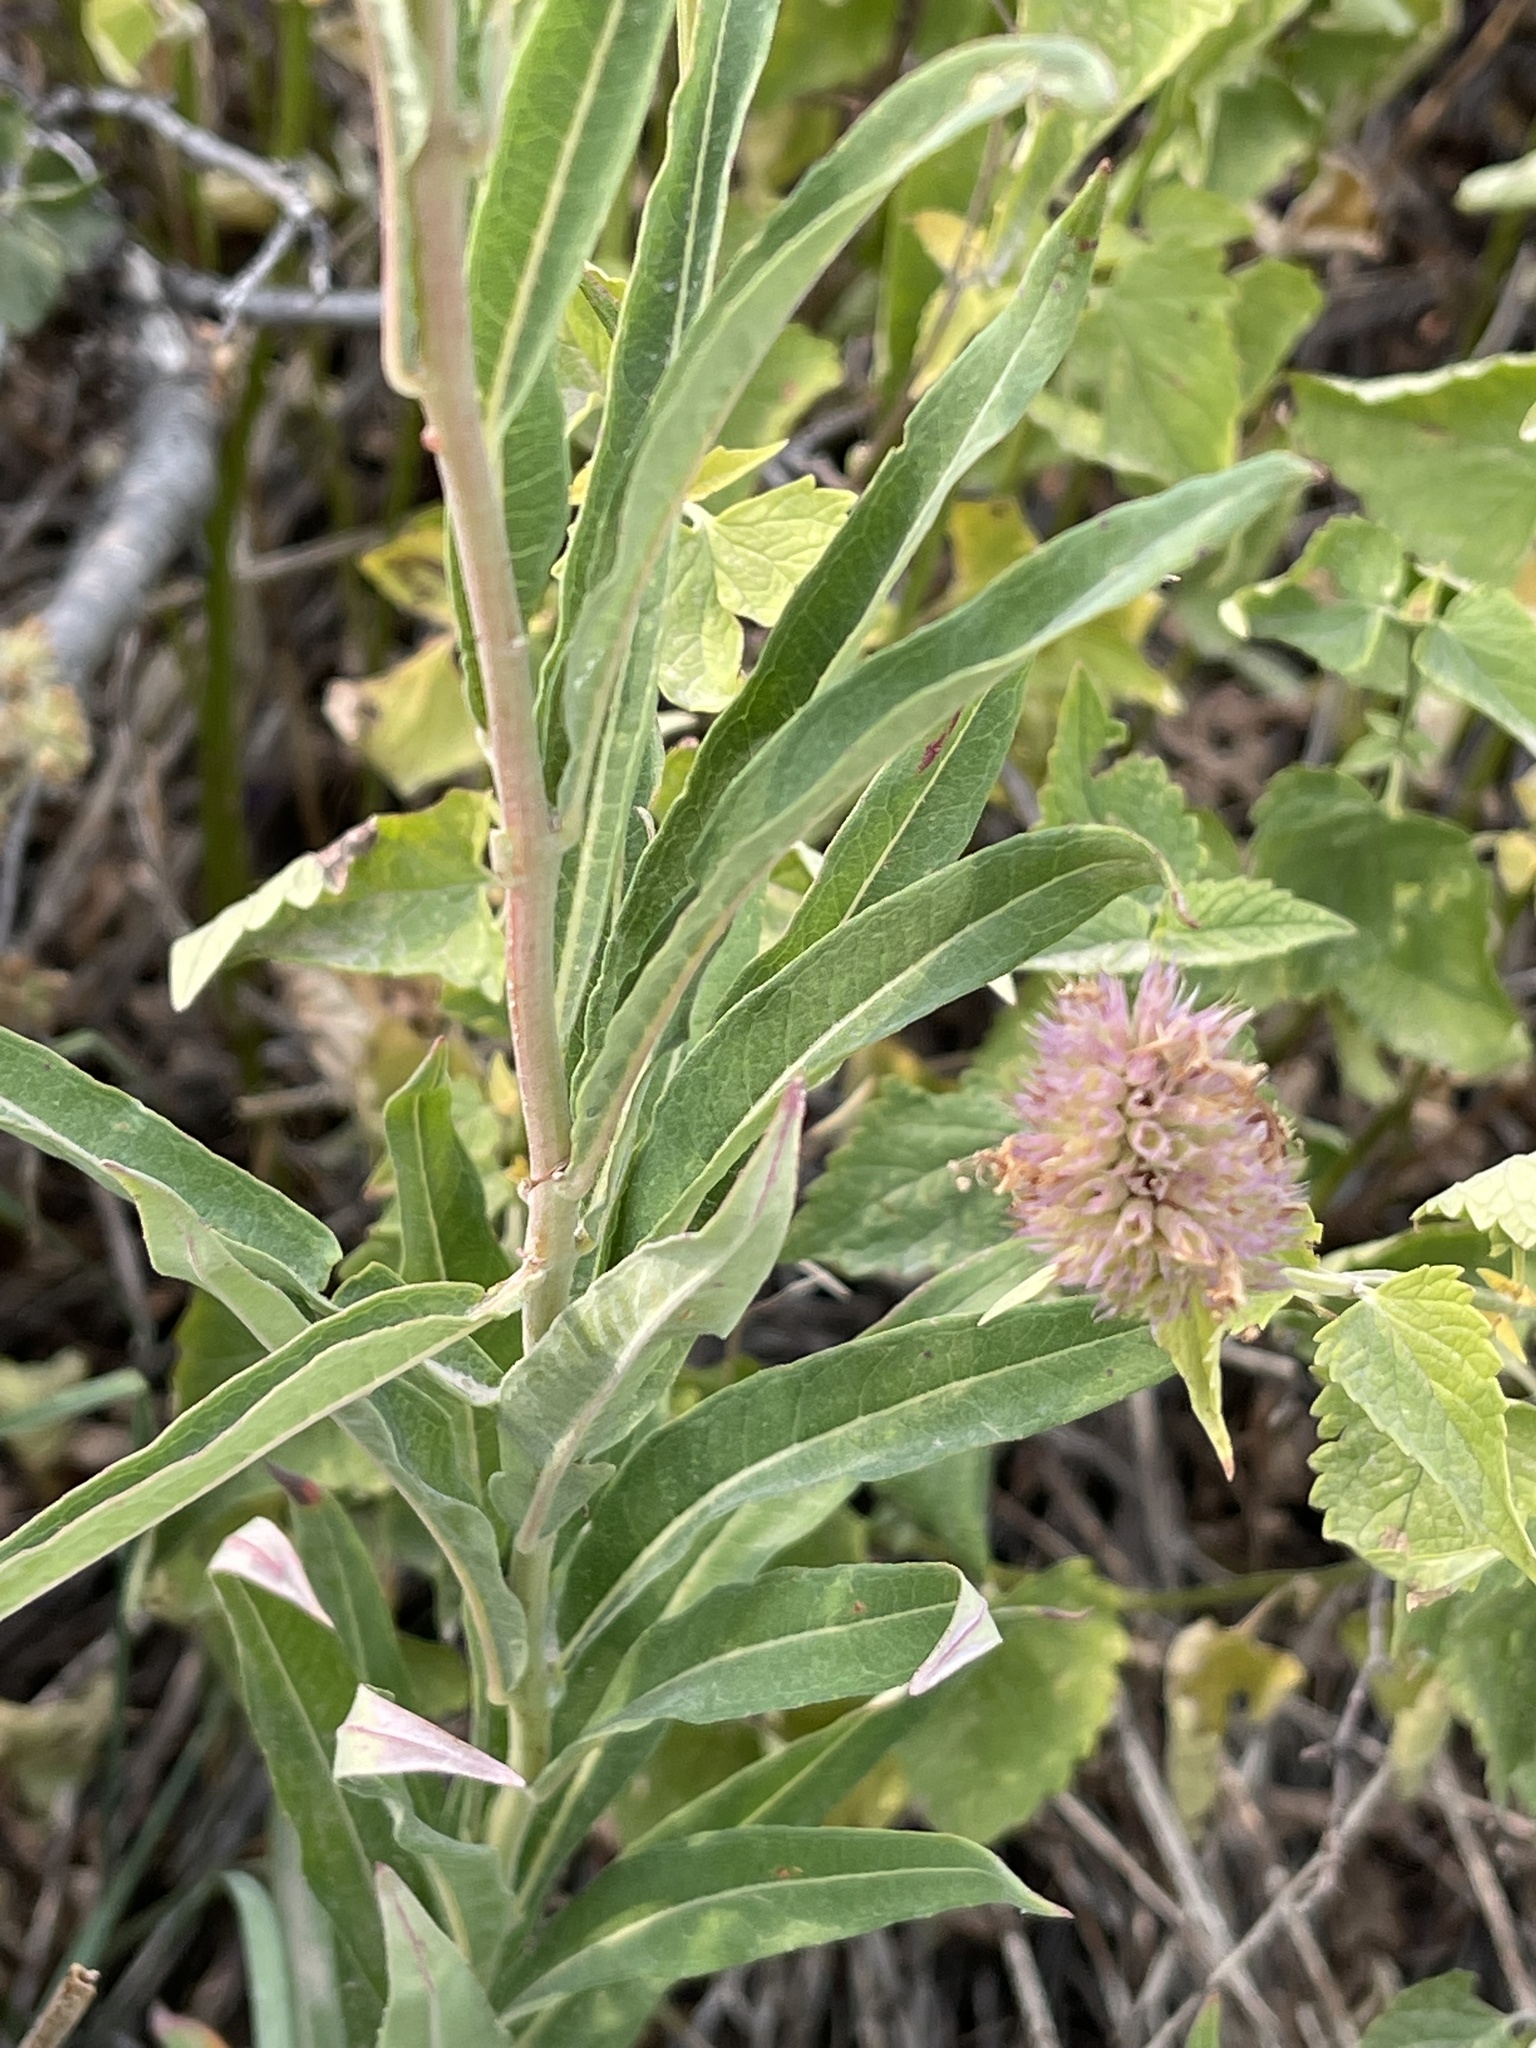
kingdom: Plantae
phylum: Tracheophyta
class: Magnoliopsida
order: Myrtales
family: Onagraceae
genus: Chamaenerion
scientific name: Chamaenerion angustifolium
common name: Fireweed
